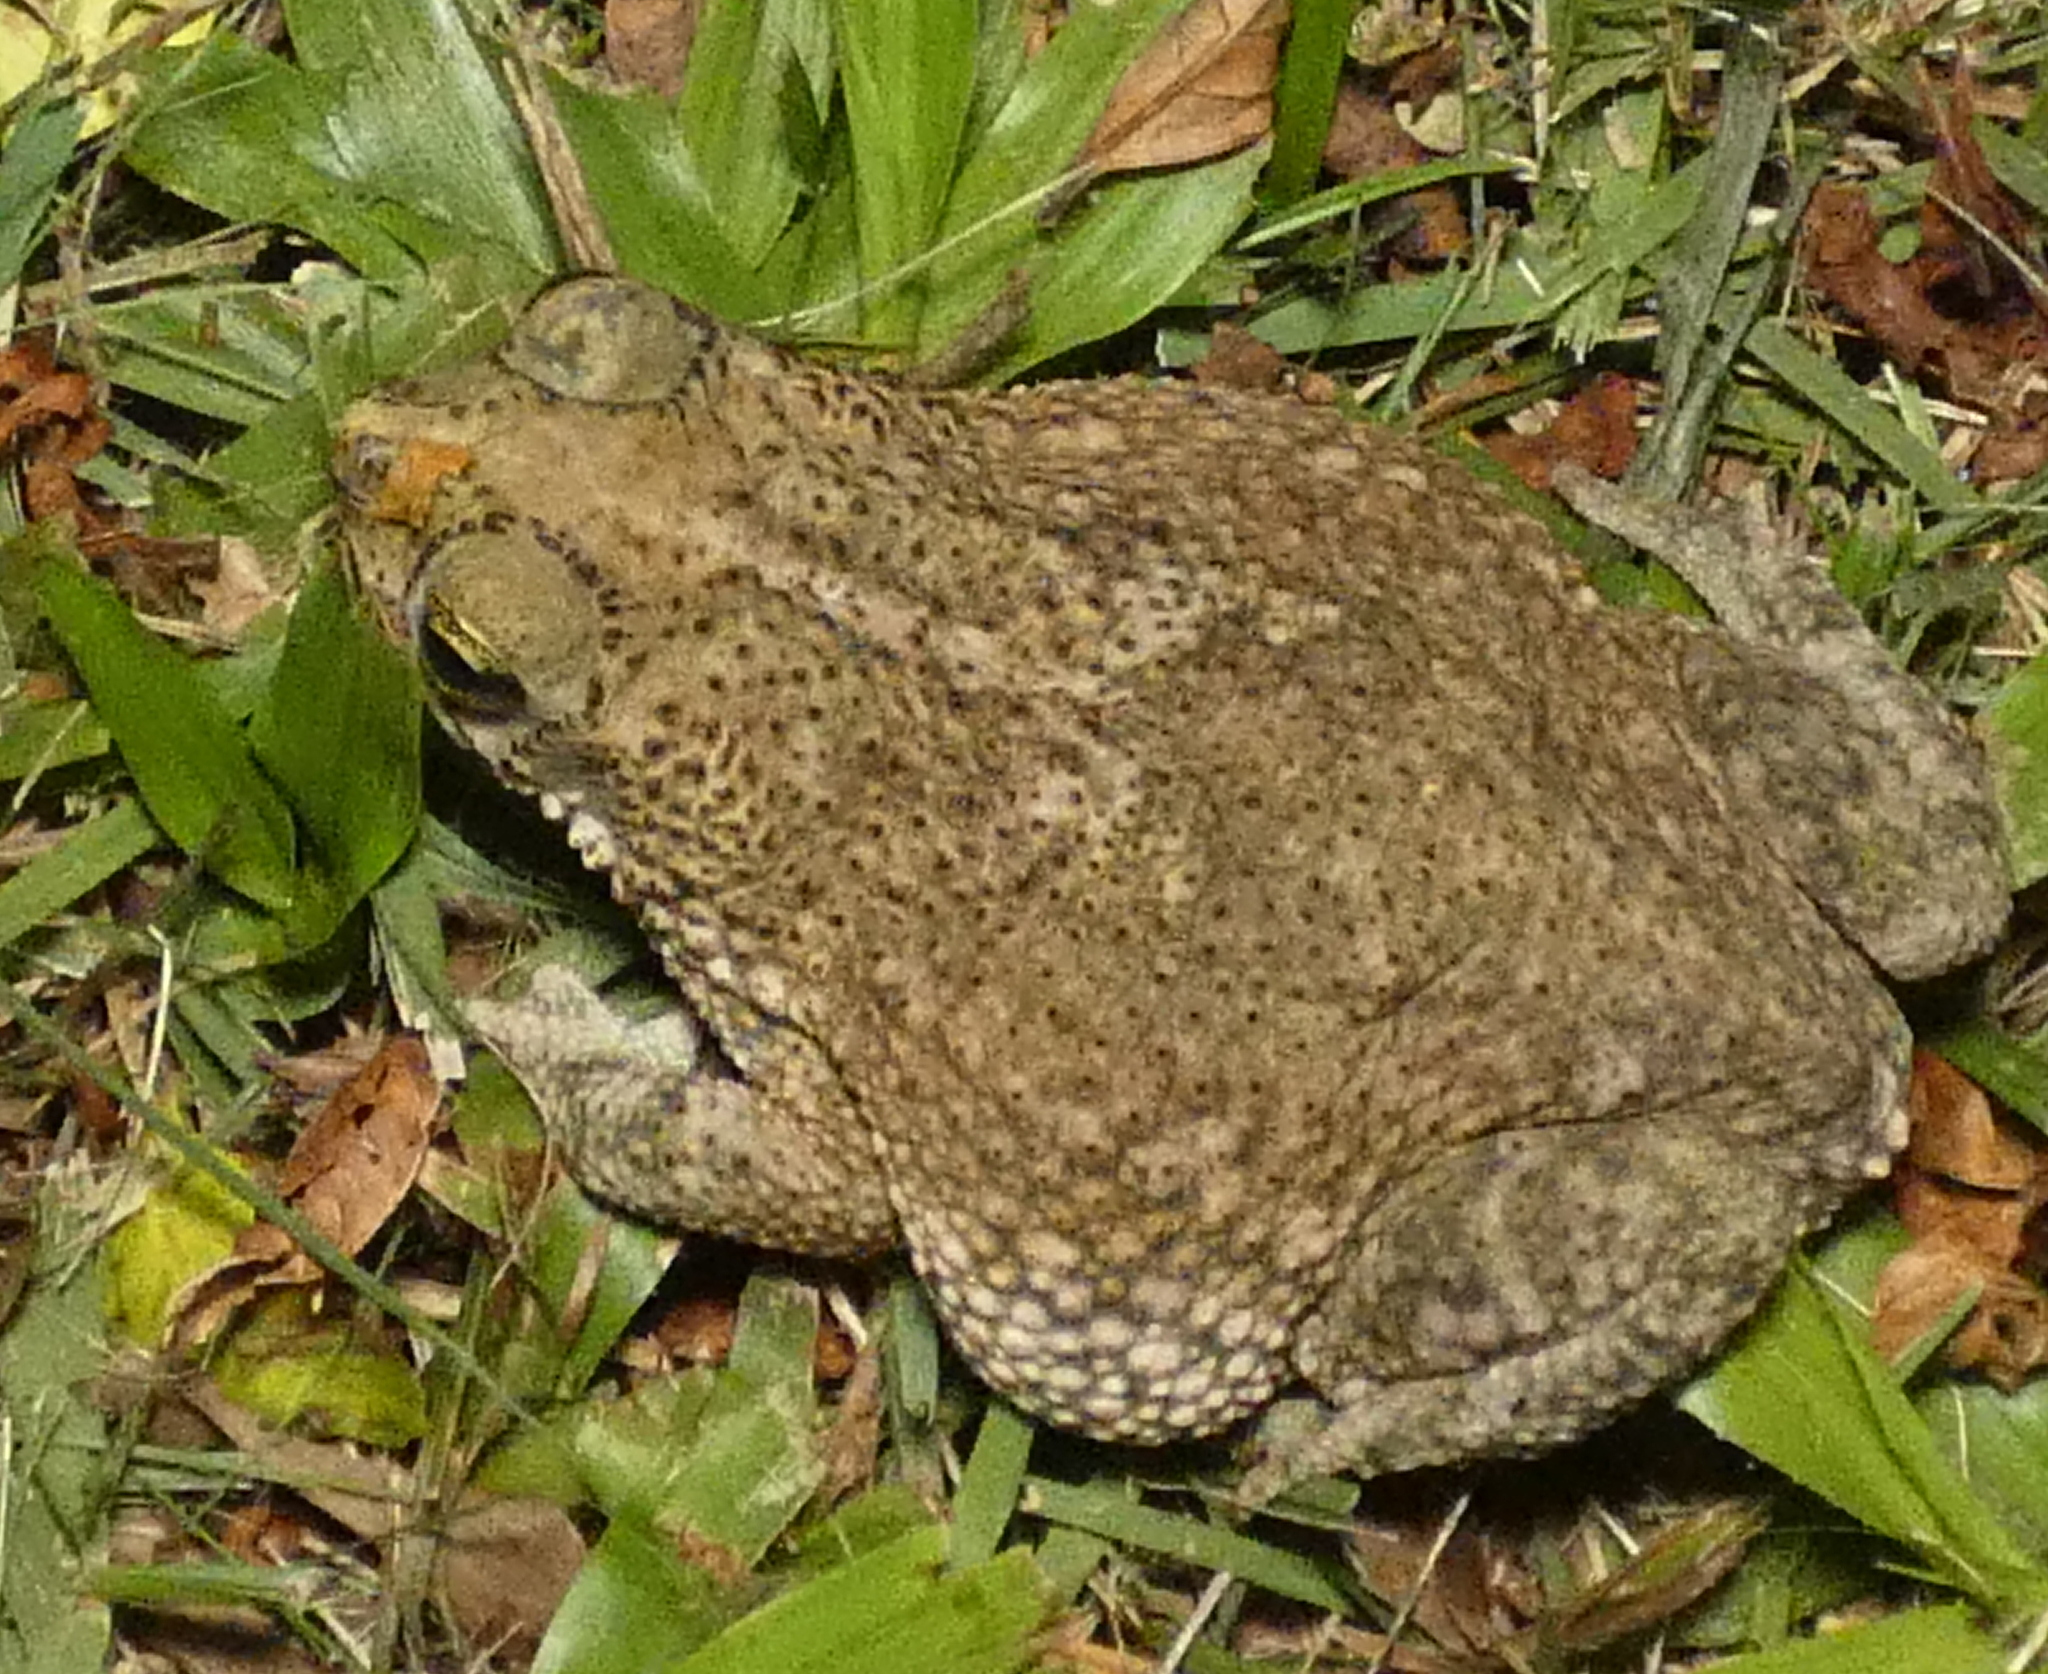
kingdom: Animalia
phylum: Chordata
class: Amphibia
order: Anura
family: Bufonidae
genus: Rhinella
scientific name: Rhinella granulosa
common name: Common lesser toad
